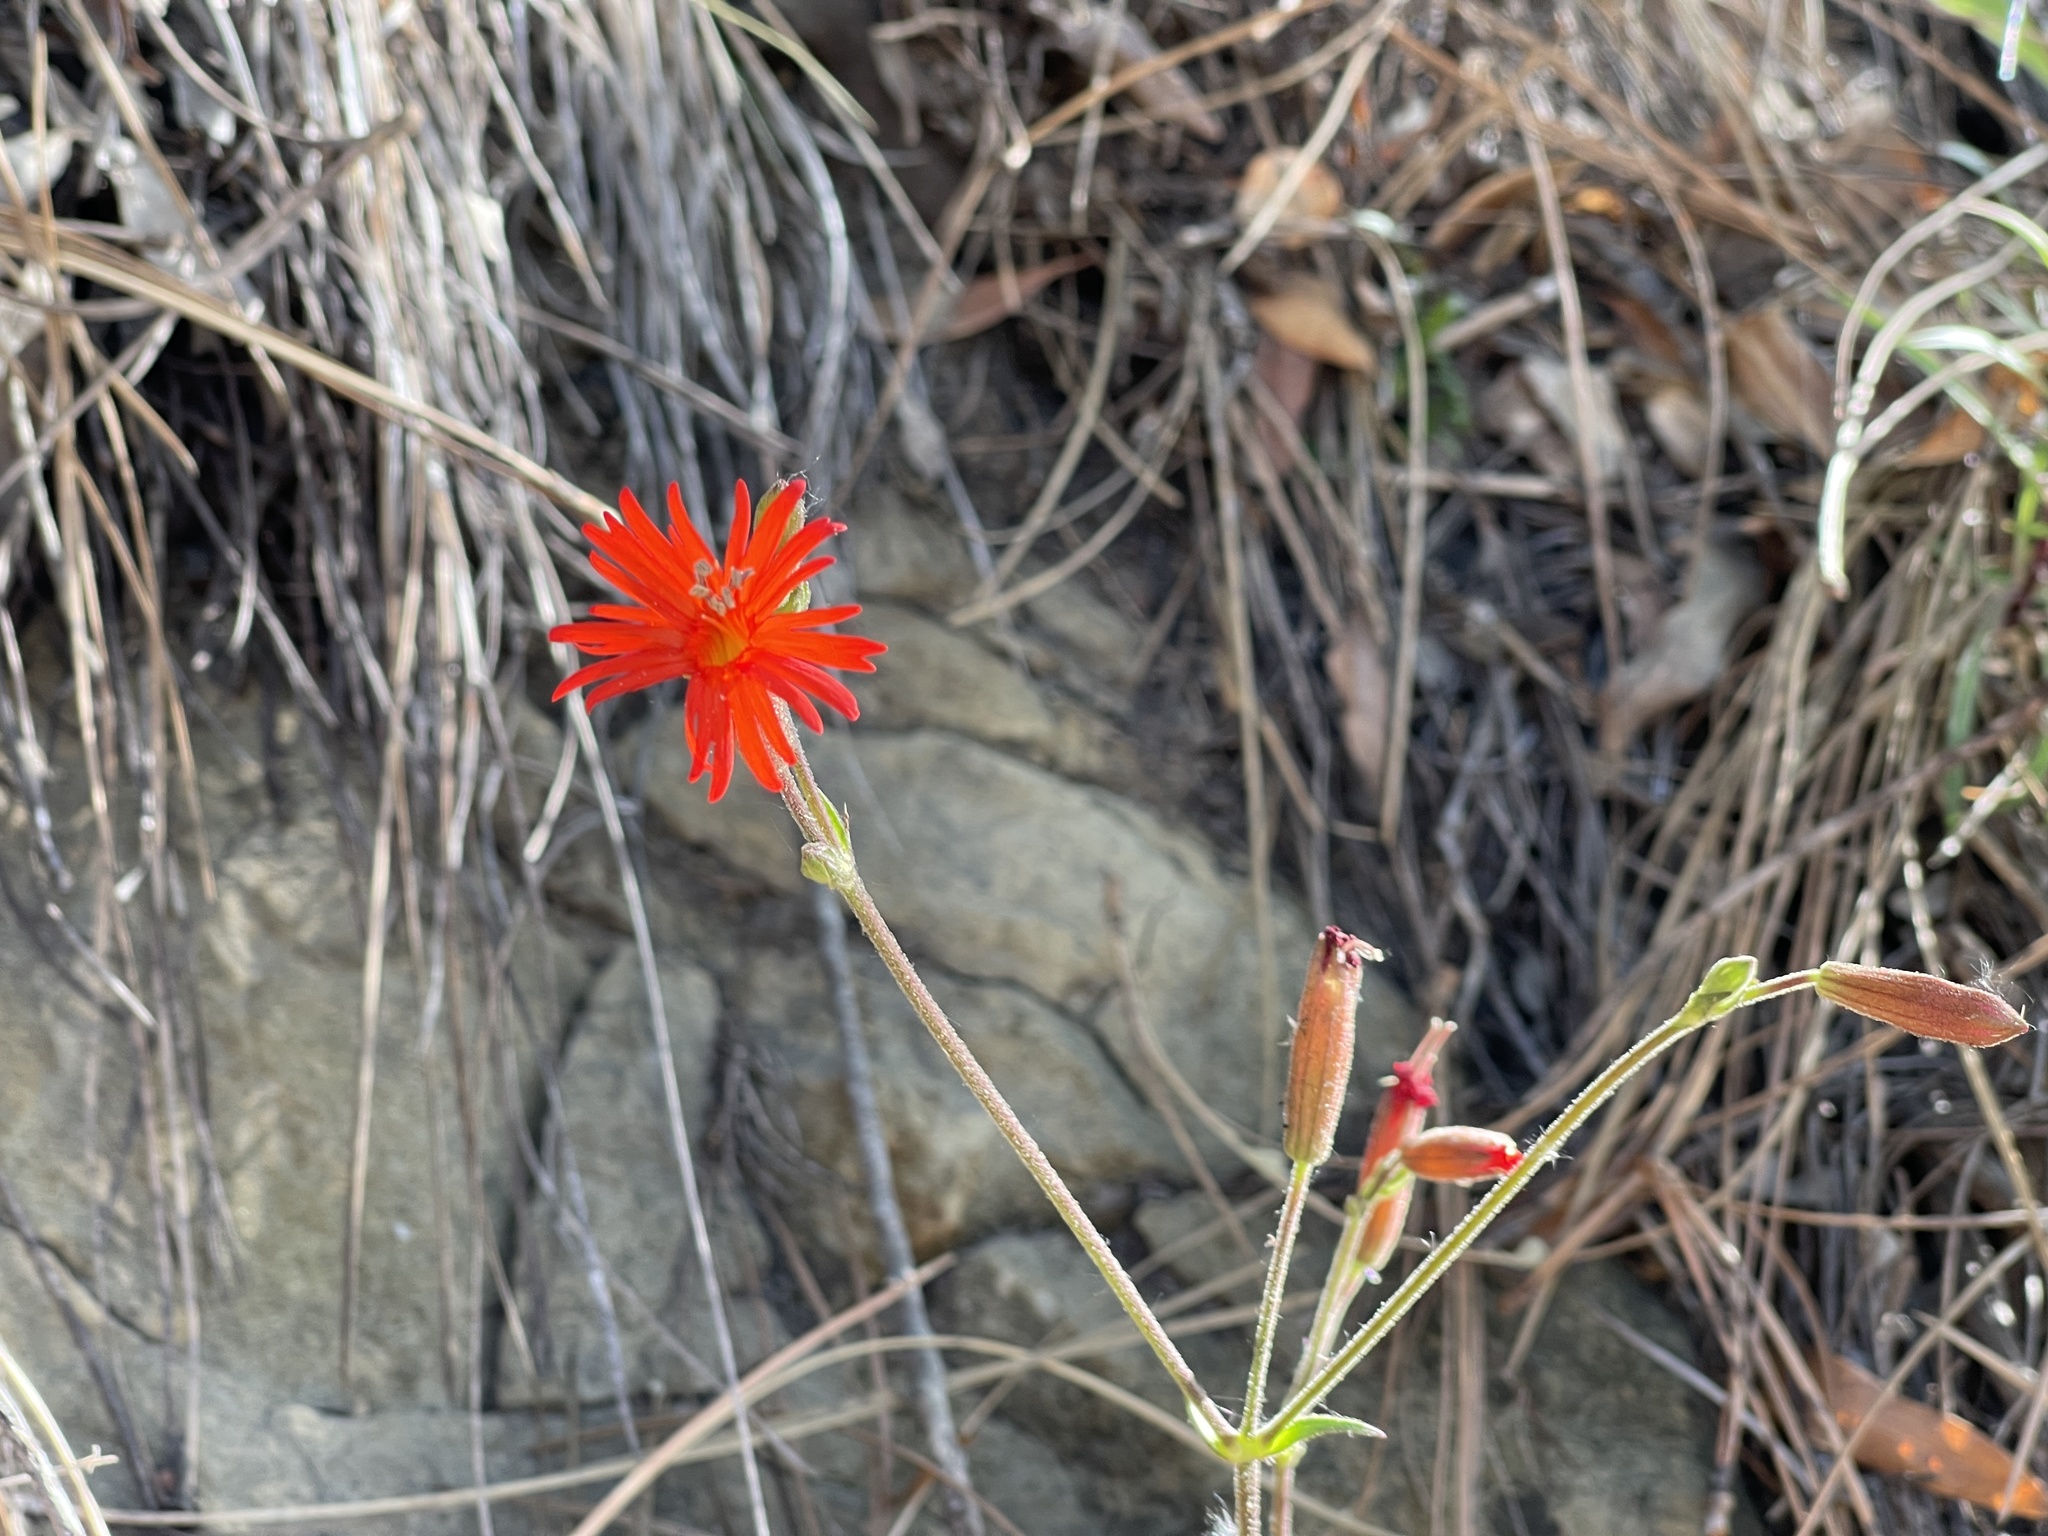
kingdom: Plantae
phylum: Tracheophyta
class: Magnoliopsida
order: Caryophyllales
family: Caryophyllaceae
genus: Silene
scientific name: Silene laciniata
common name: Indian-pink
